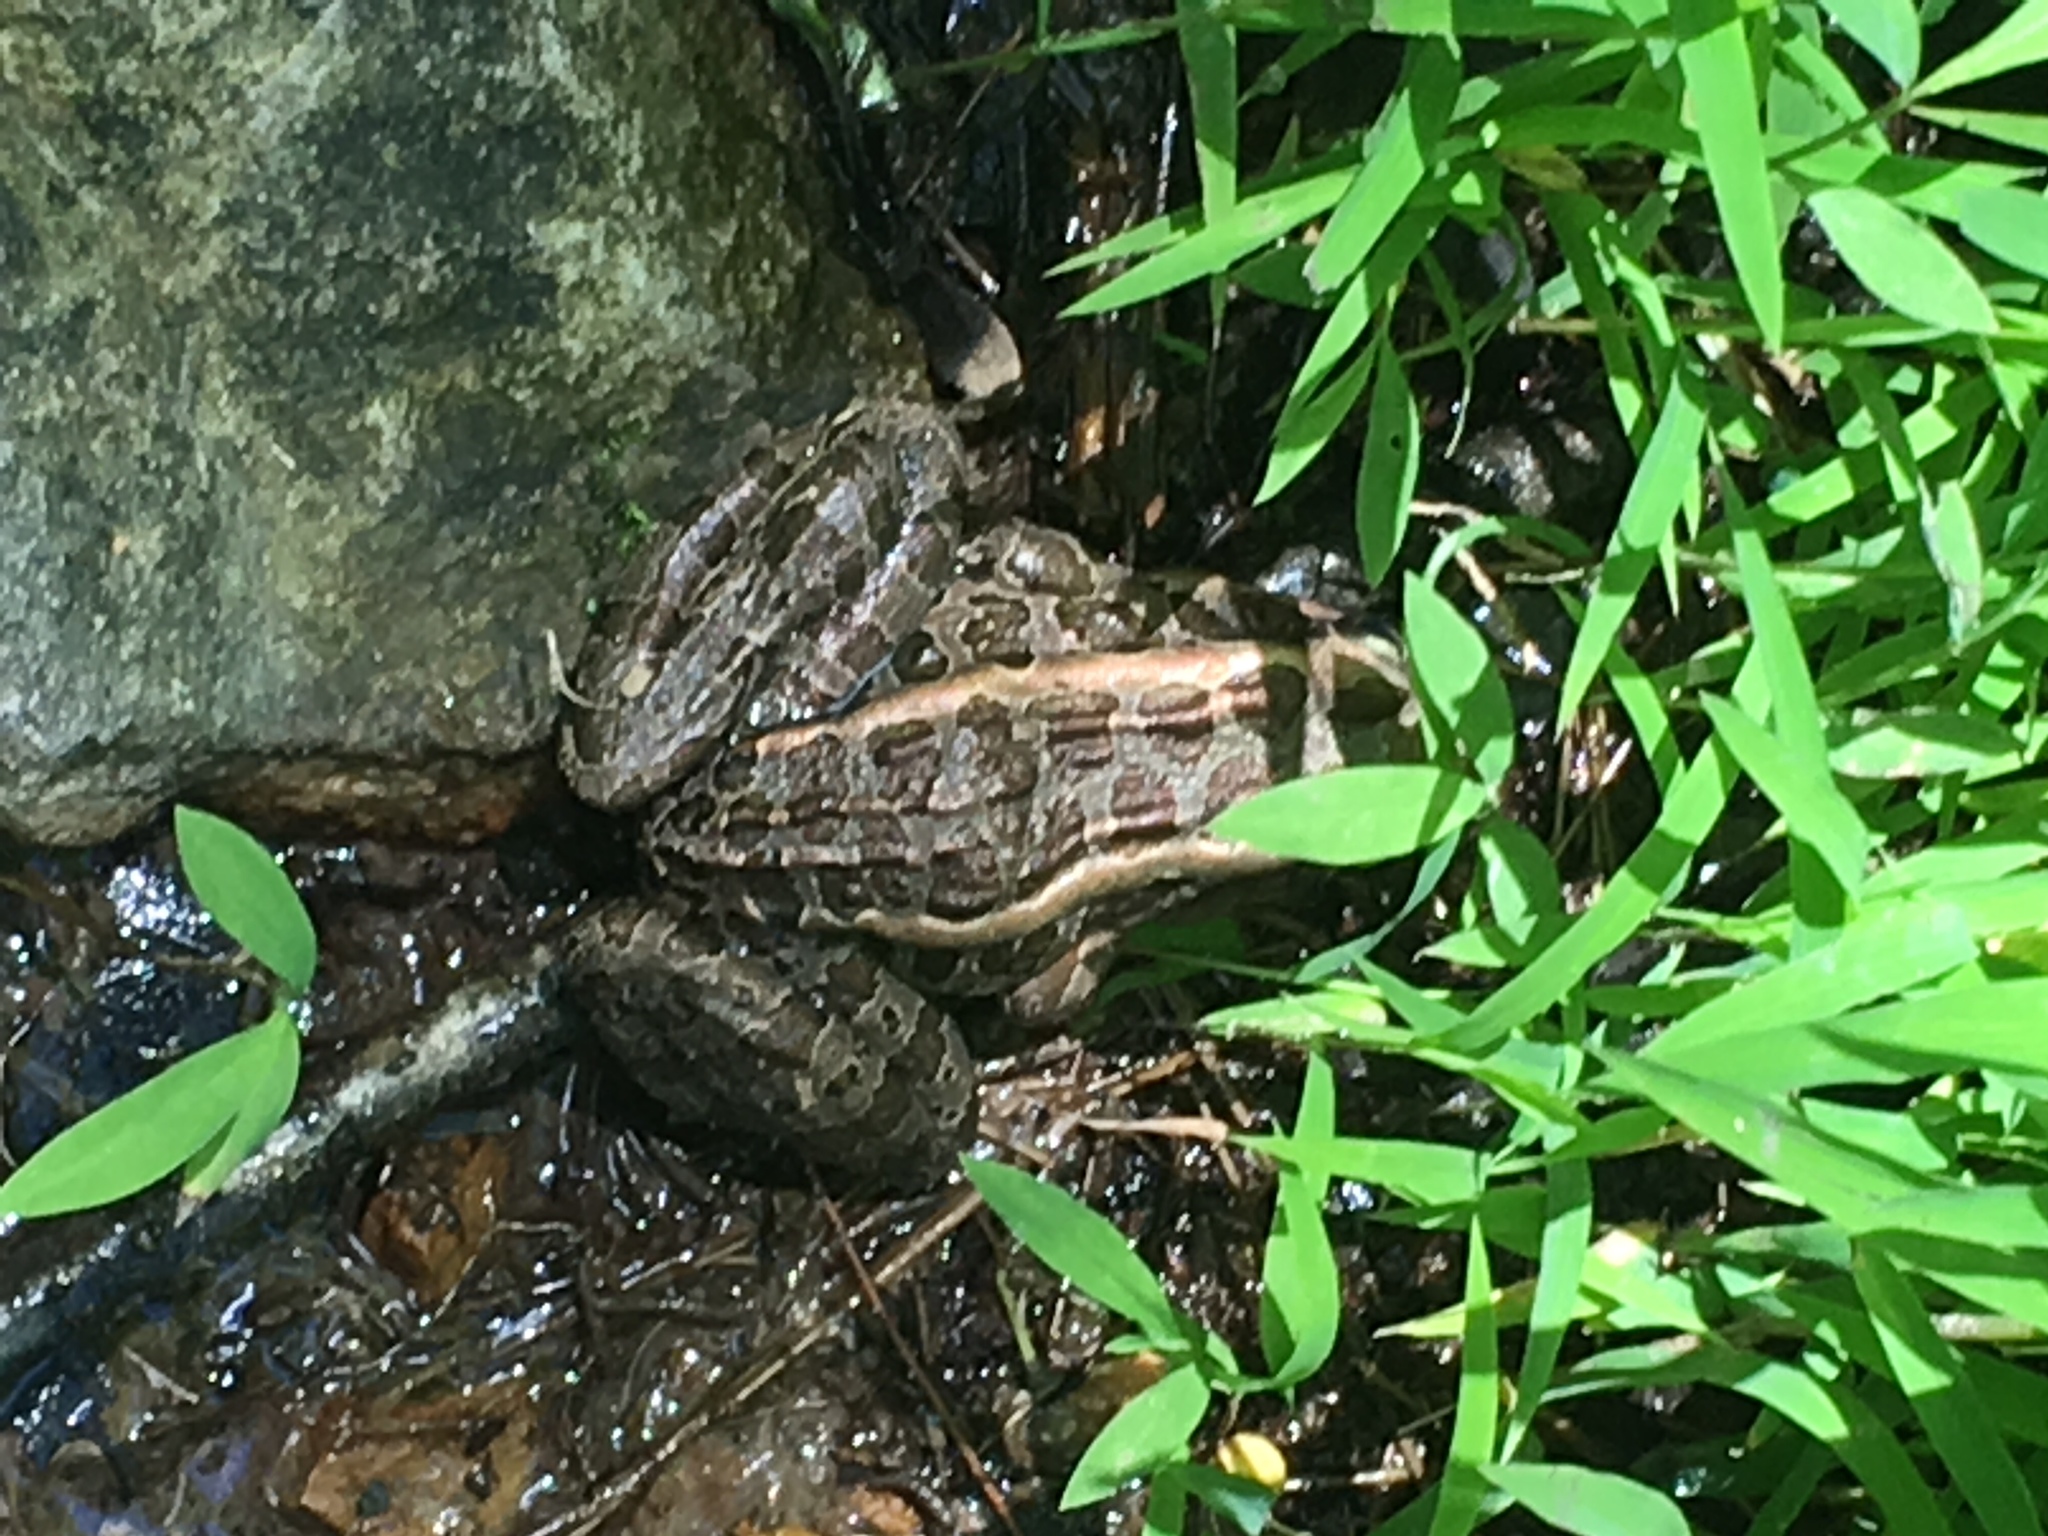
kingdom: Animalia
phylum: Chordata
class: Amphibia
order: Anura
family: Ranidae
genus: Lithobates
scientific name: Lithobates palustris
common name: Pickerel frog
